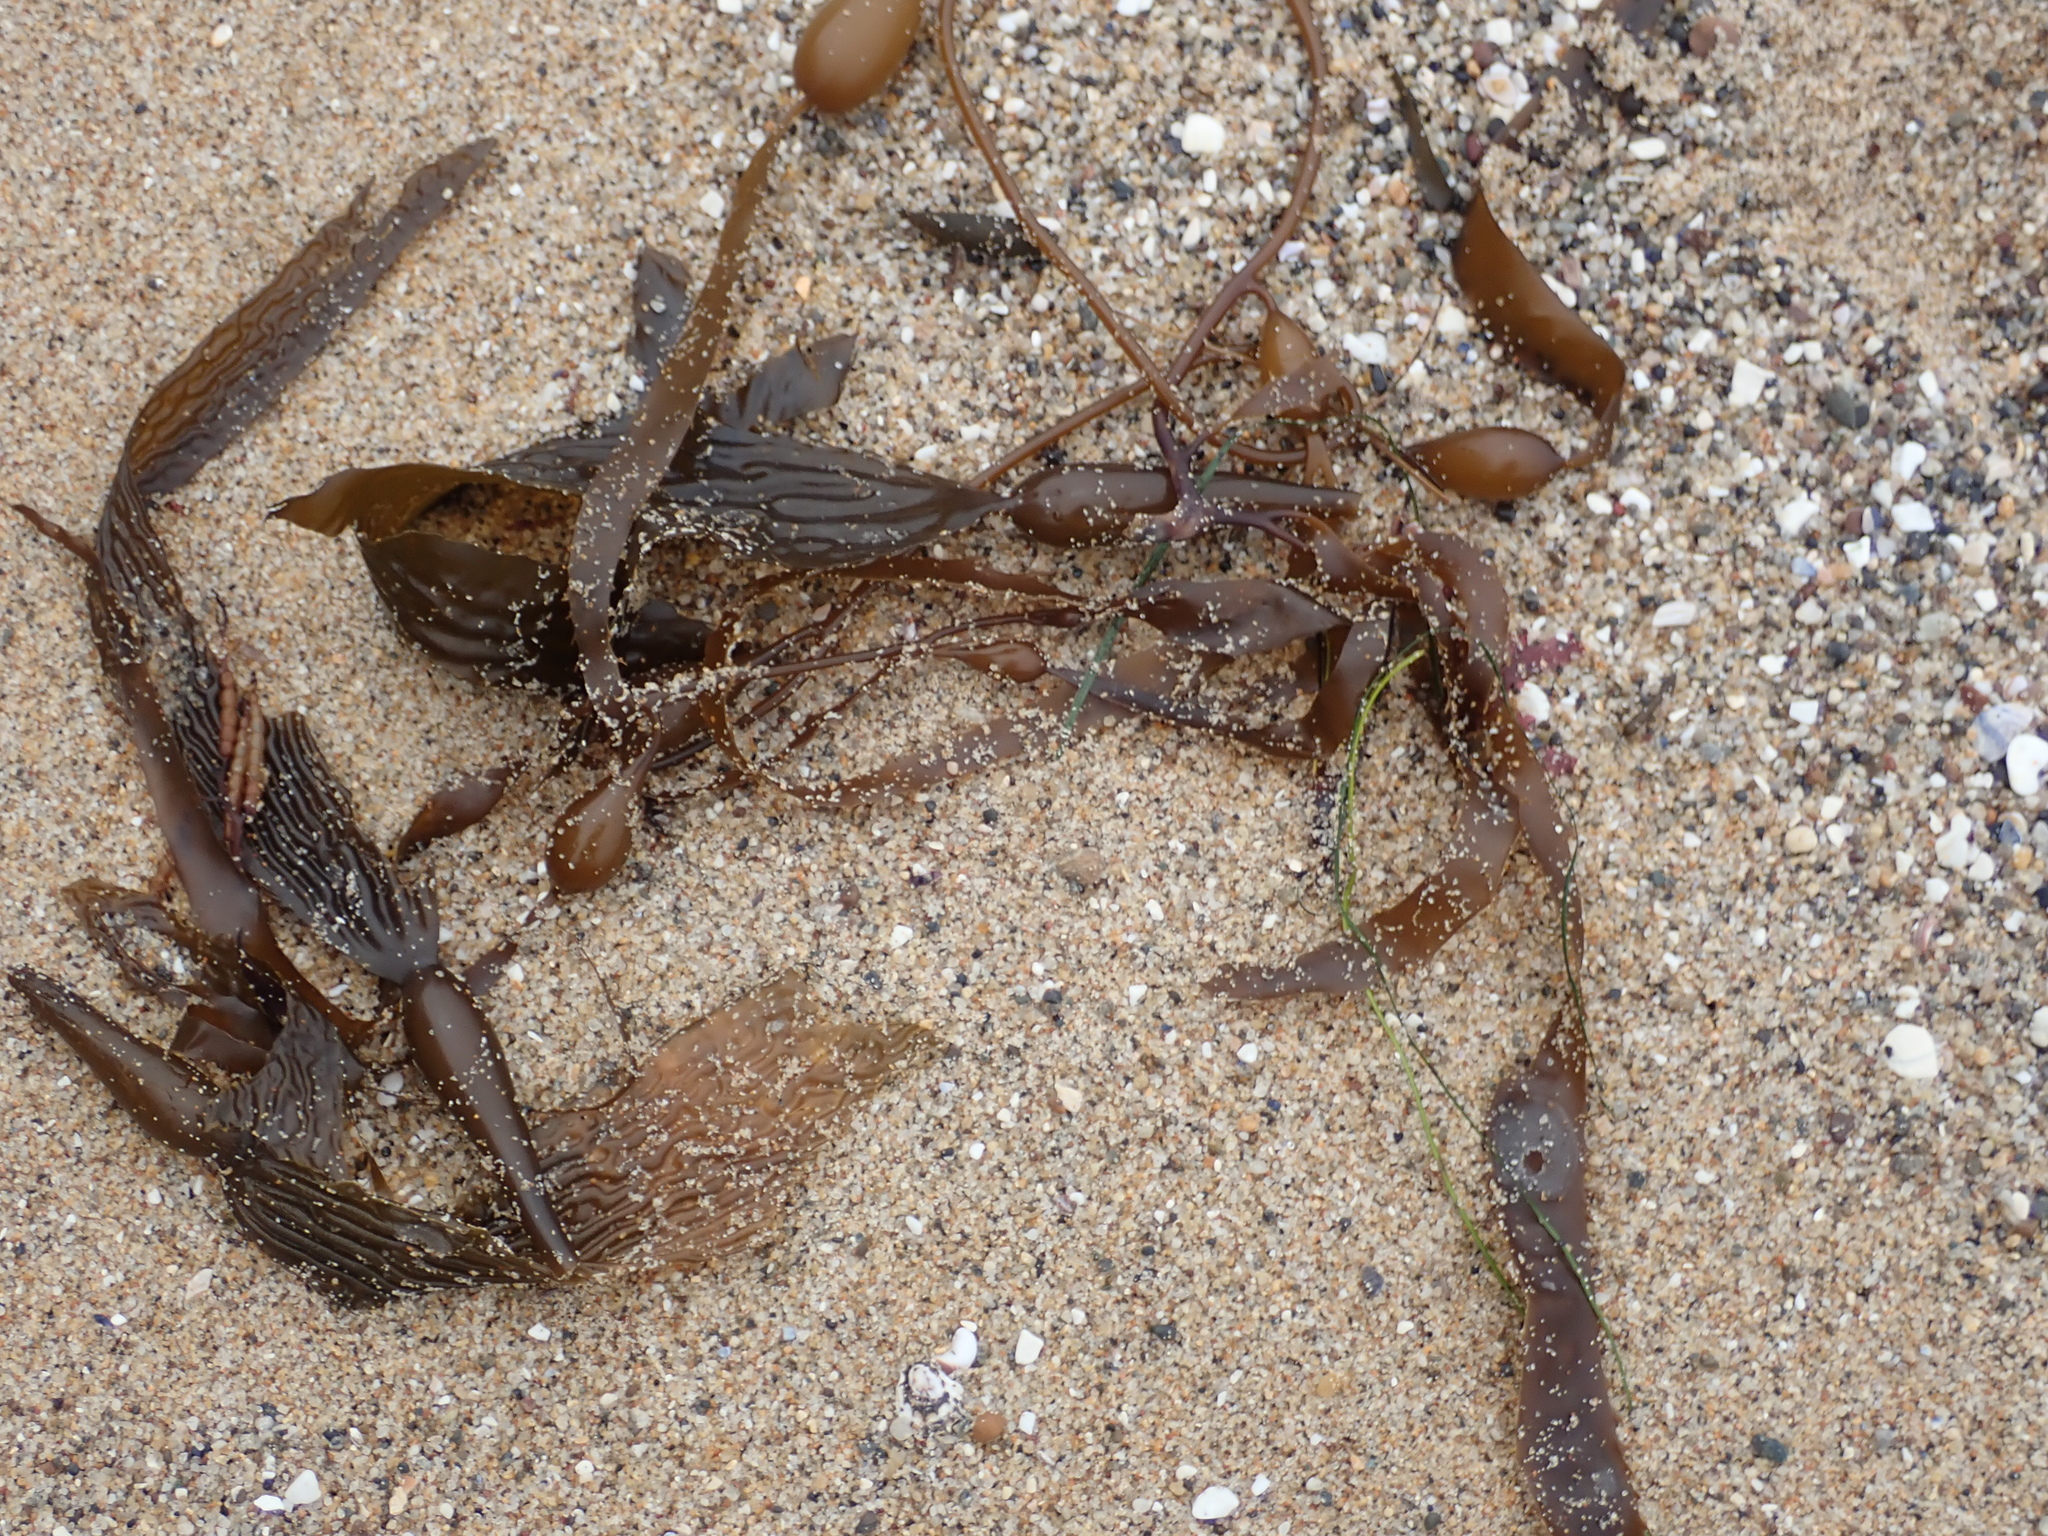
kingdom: Chromista
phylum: Ochrophyta
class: Phaeophyceae
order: Laminariales
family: Laminariaceae
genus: Macrocystis
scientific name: Macrocystis pyrifera
